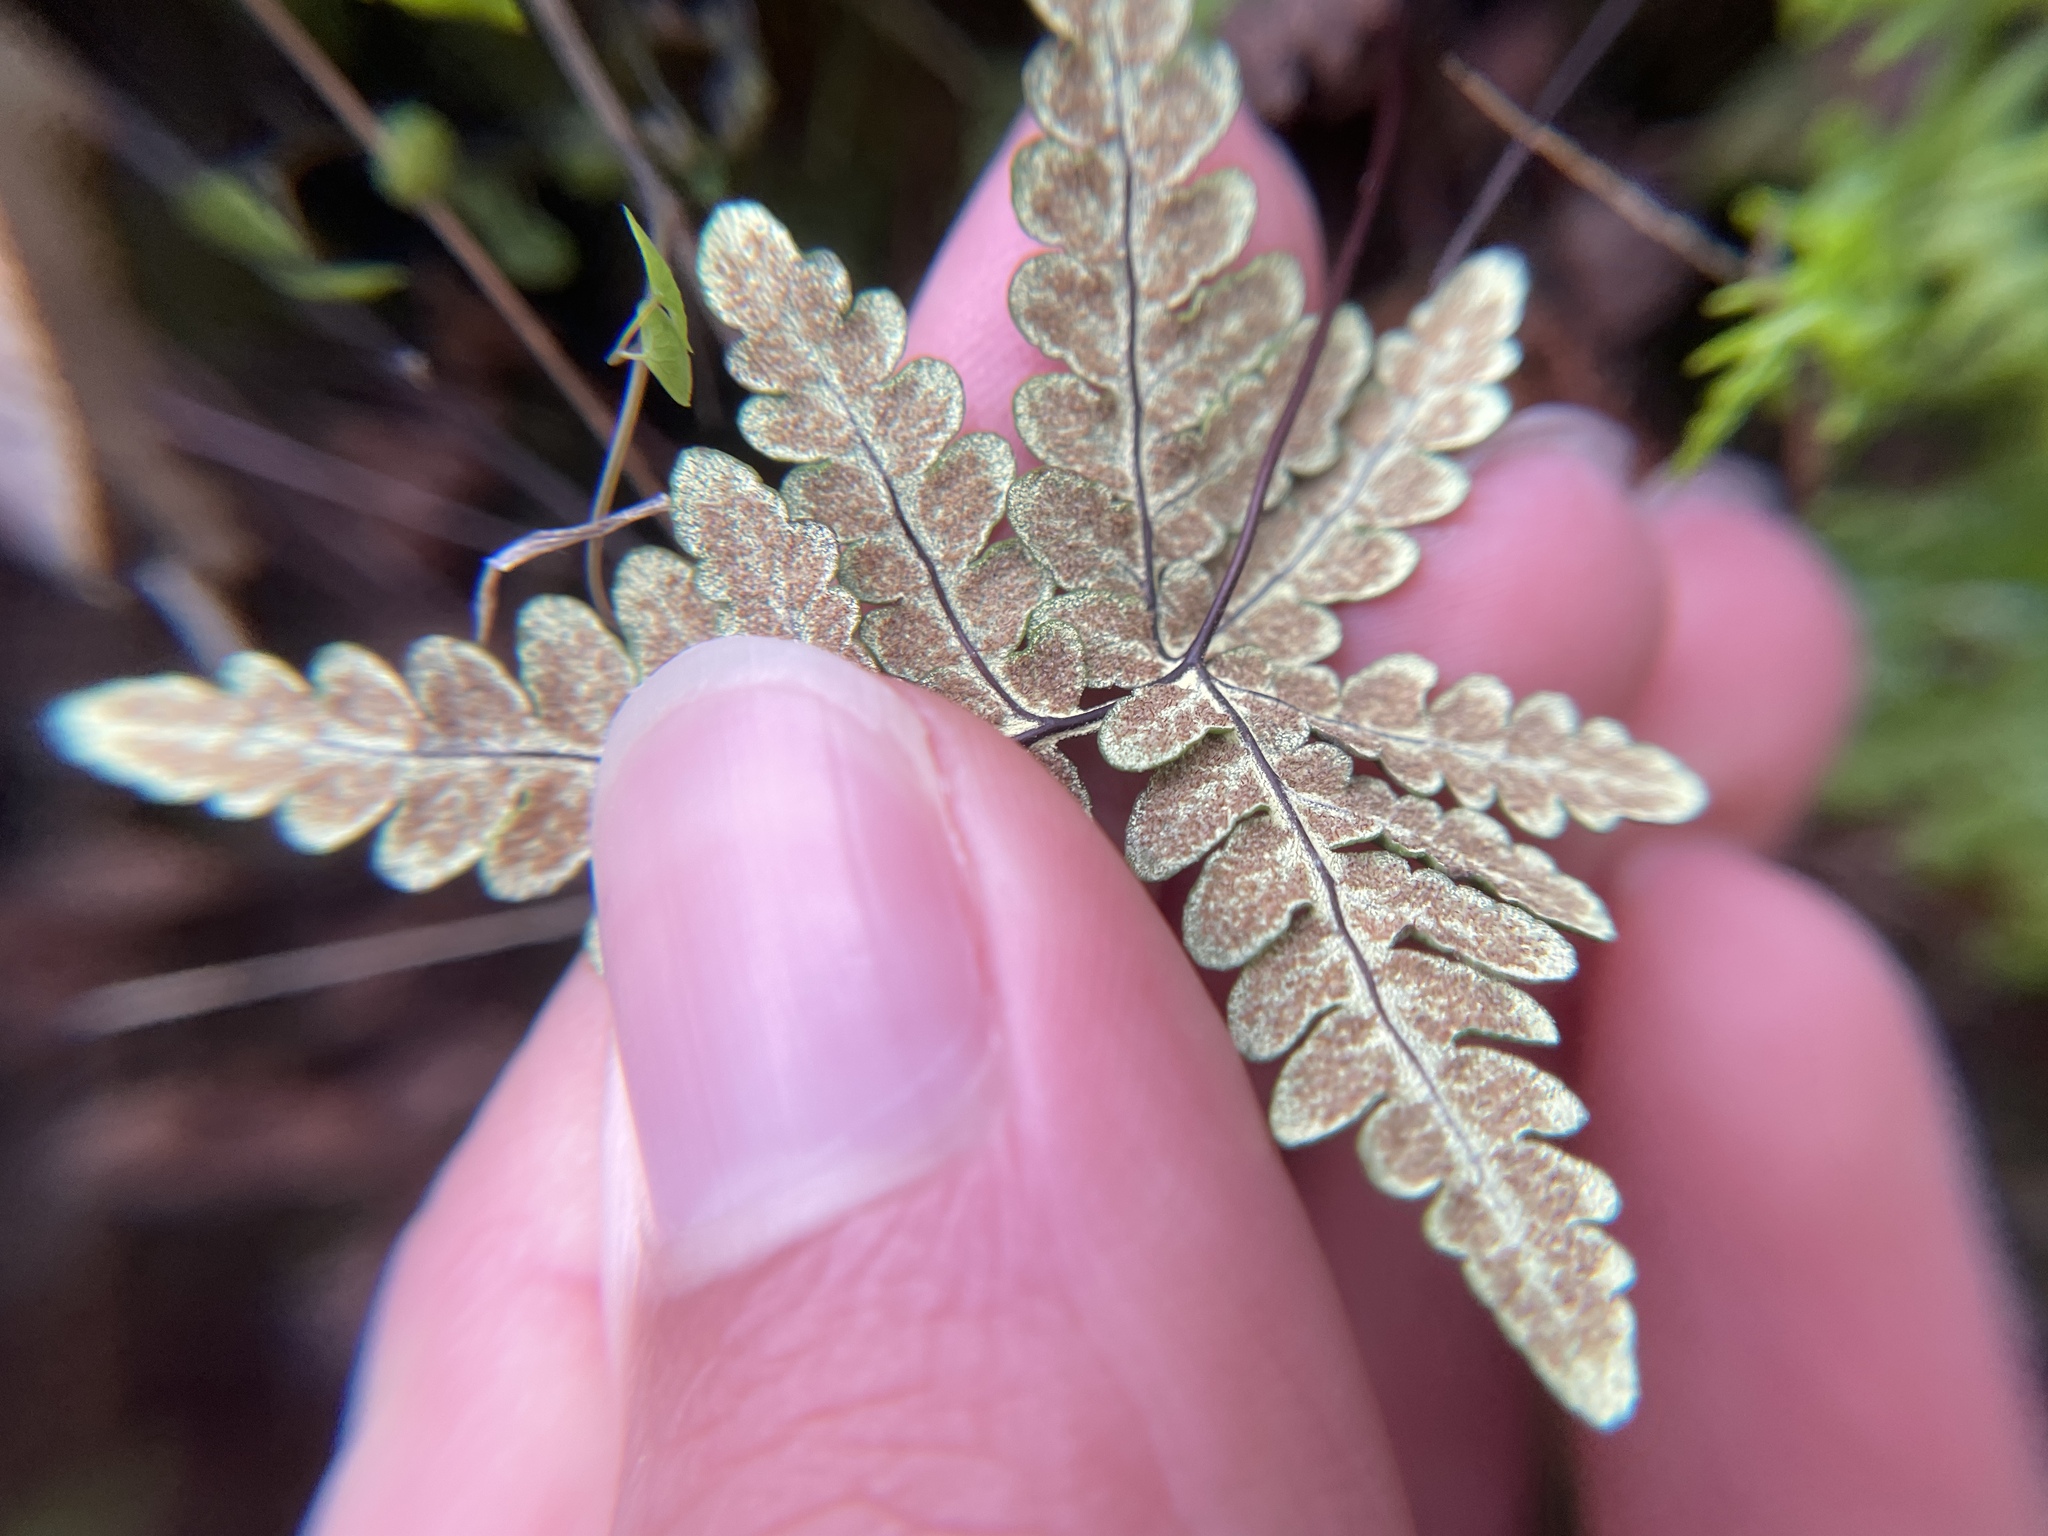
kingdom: Plantae
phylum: Tracheophyta
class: Polypodiopsida
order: Polypodiales
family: Pteridaceae
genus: Pentagramma
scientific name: Pentagramma triangularis
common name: Gold fern
